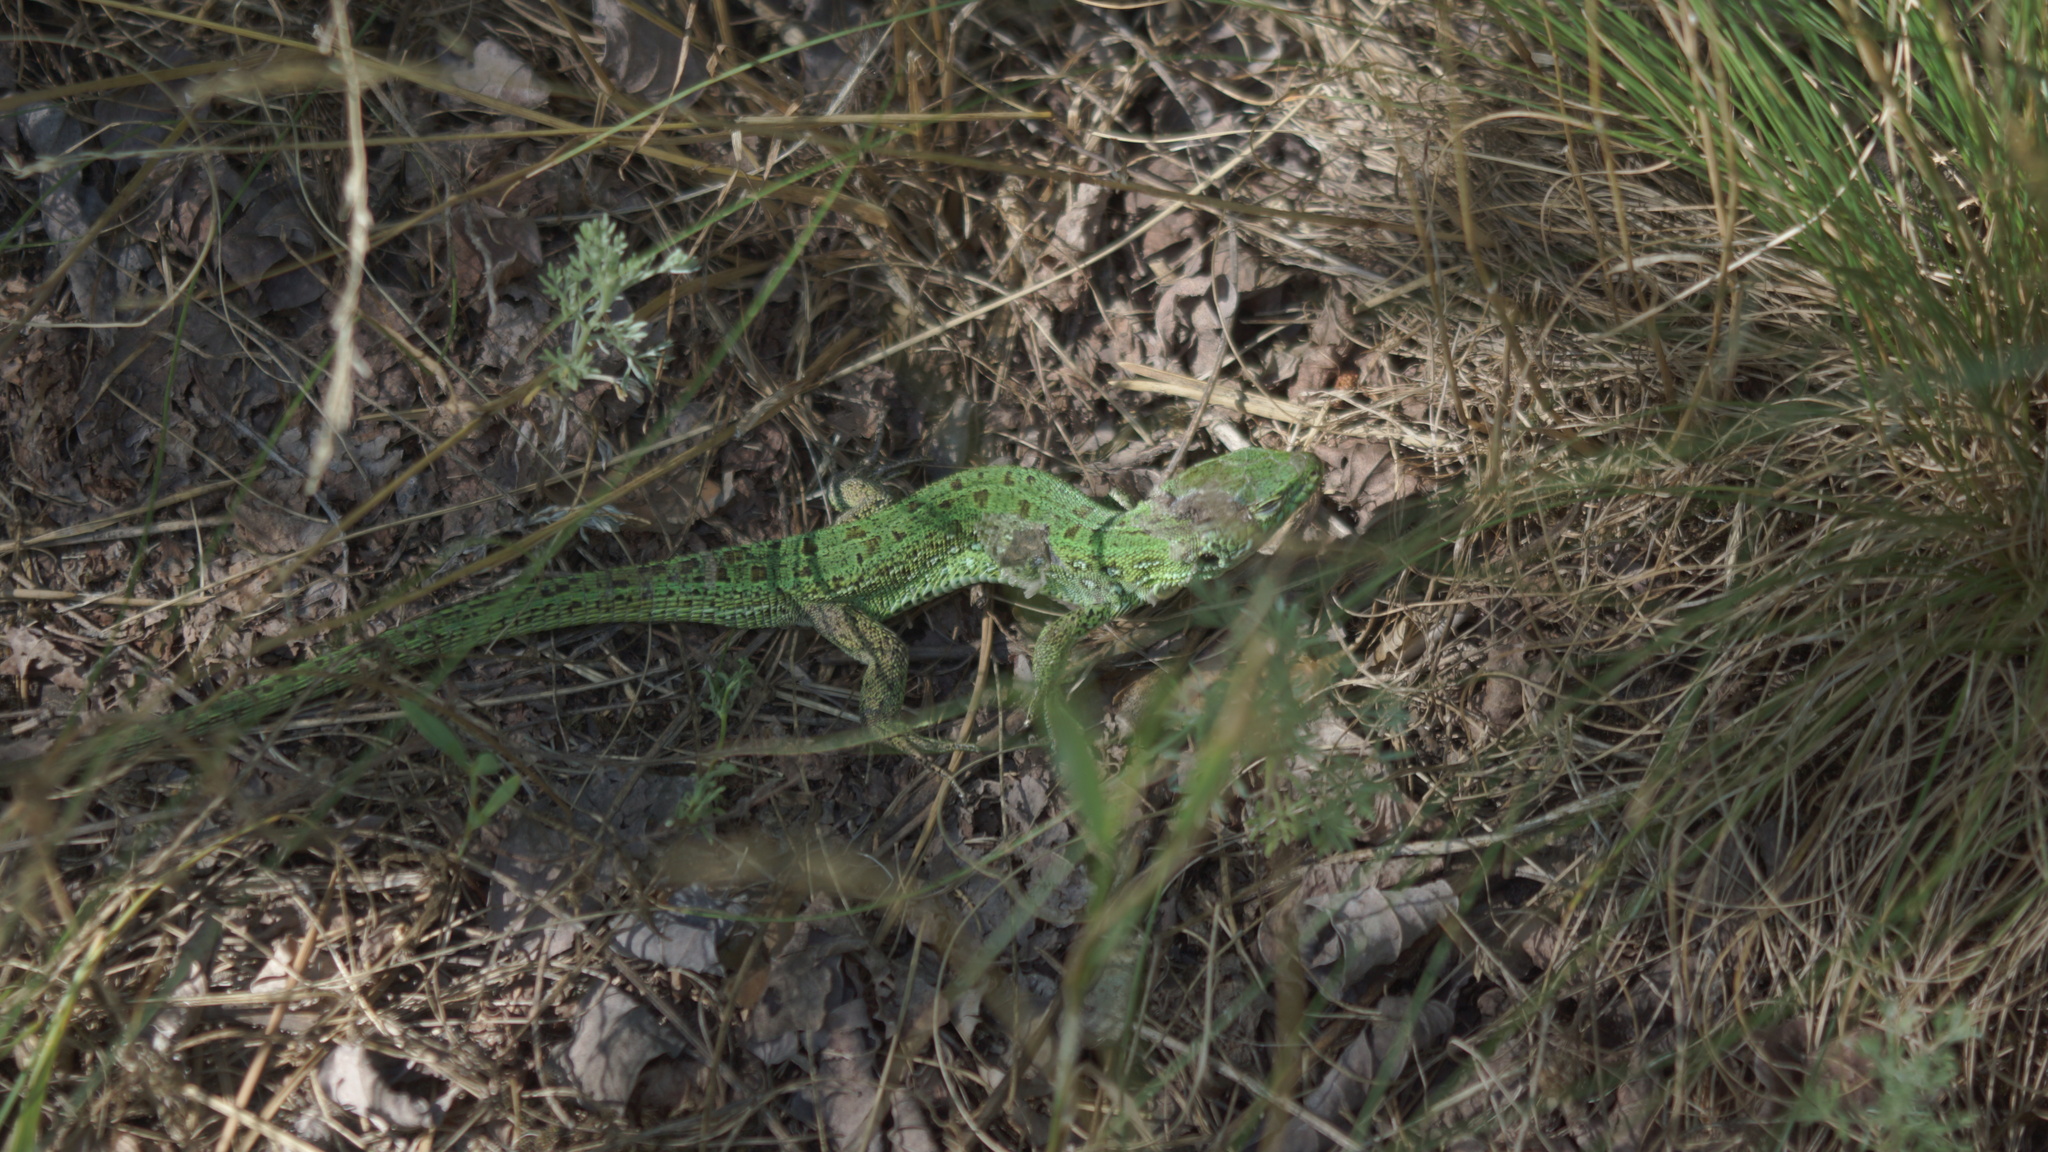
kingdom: Animalia
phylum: Chordata
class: Squamata
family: Lacertidae
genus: Lacerta
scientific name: Lacerta agilis
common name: Sand lizard
